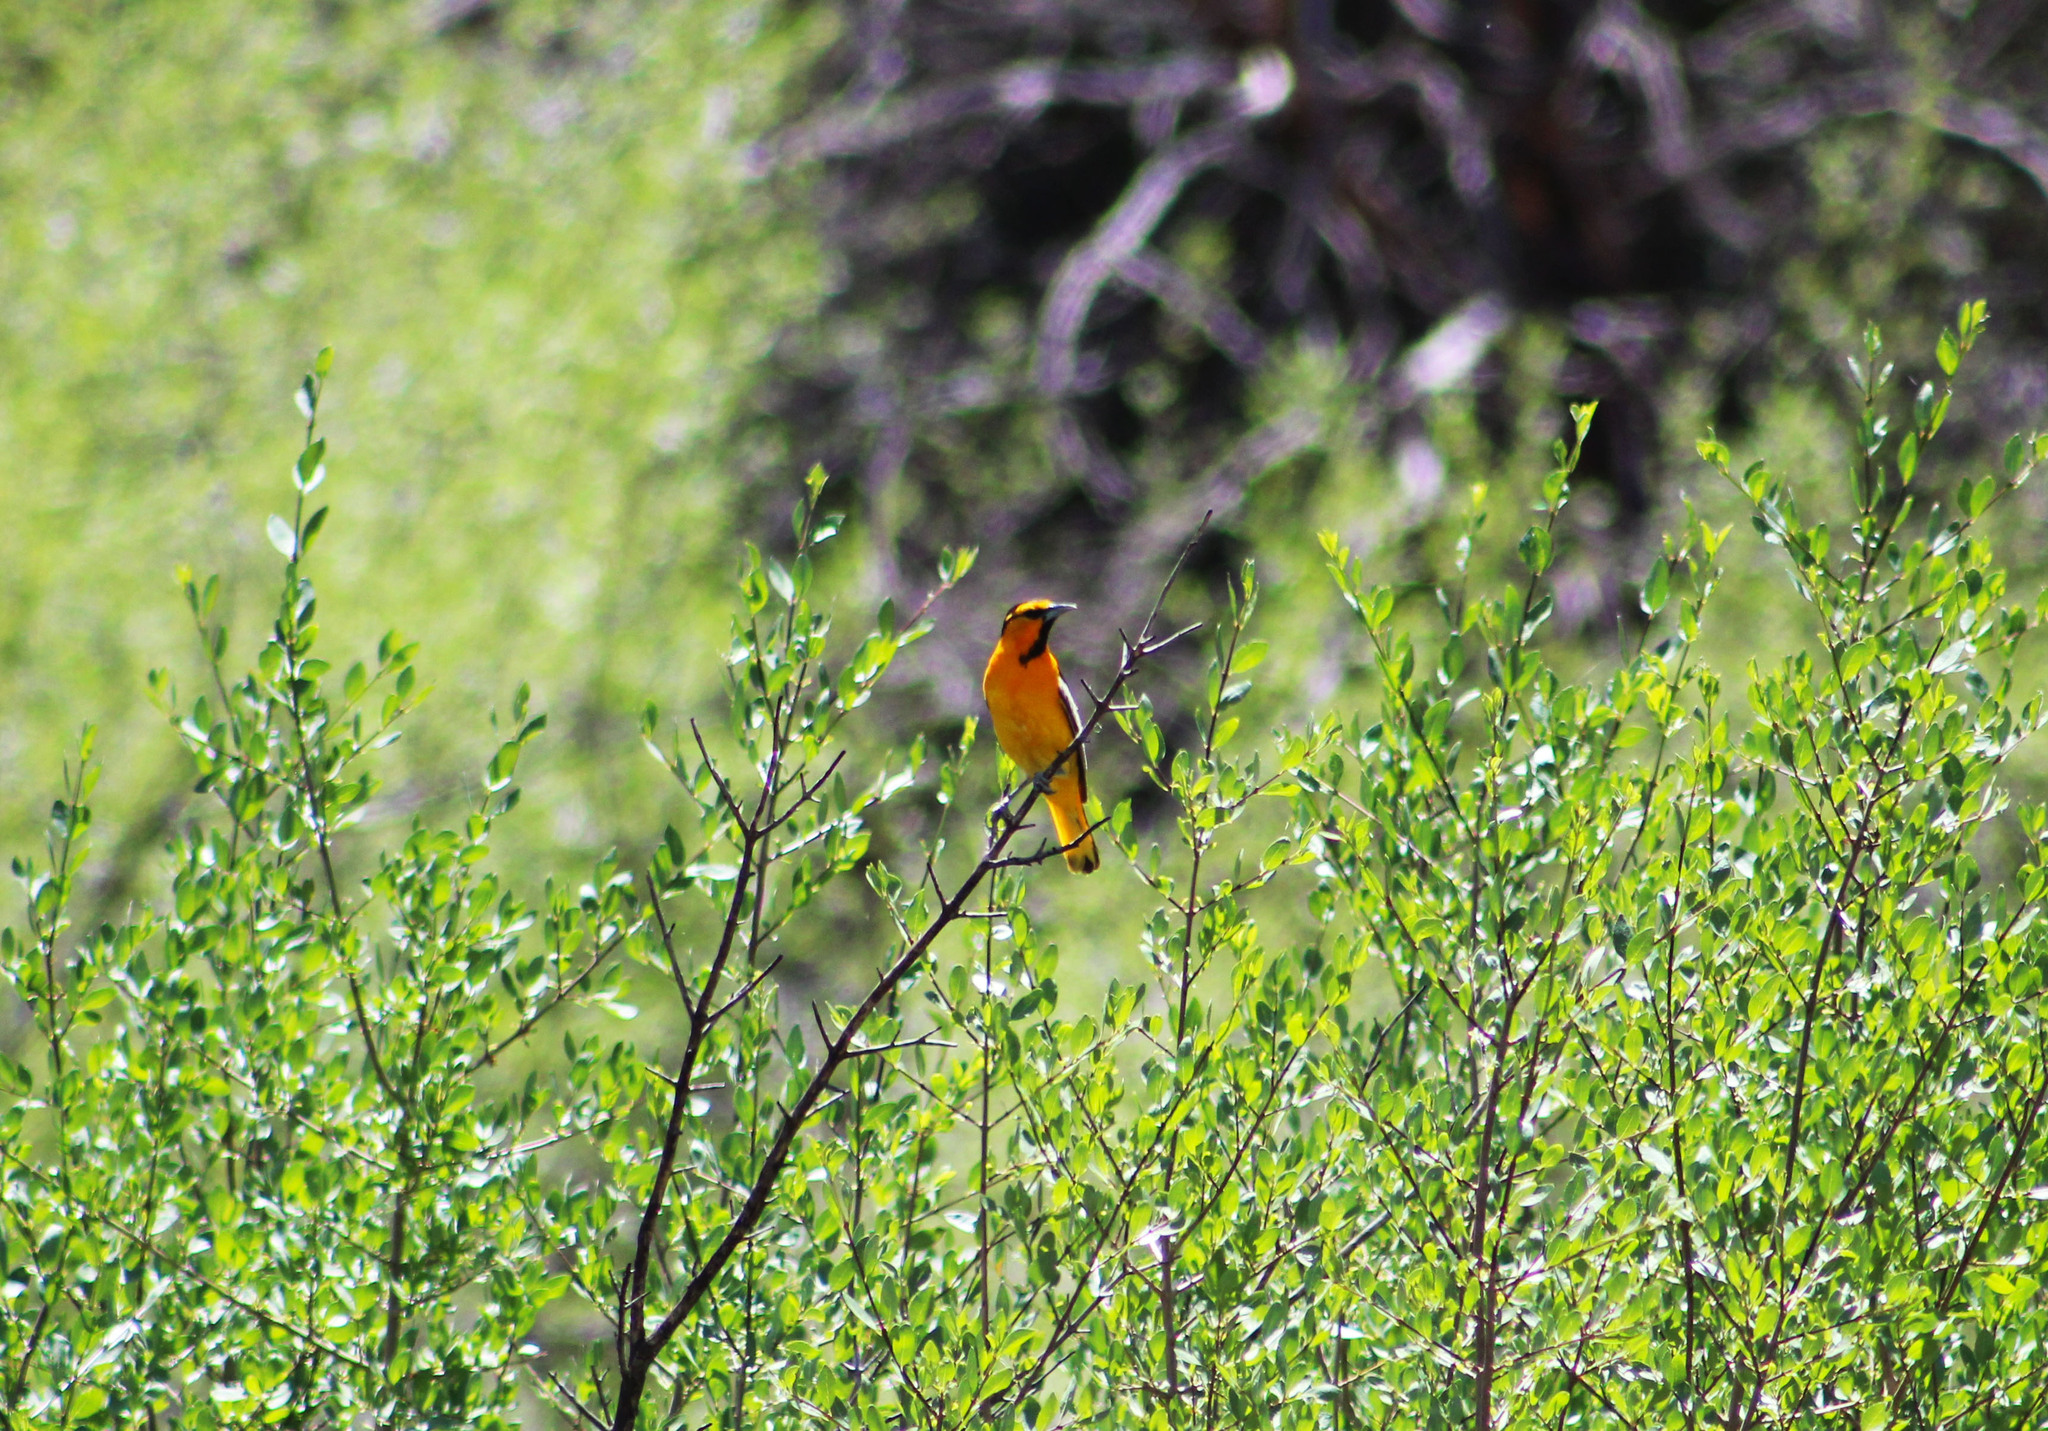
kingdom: Animalia
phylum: Chordata
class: Aves
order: Passeriformes
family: Icteridae
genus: Icterus
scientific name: Icterus bullockii
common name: Bullock's oriole
